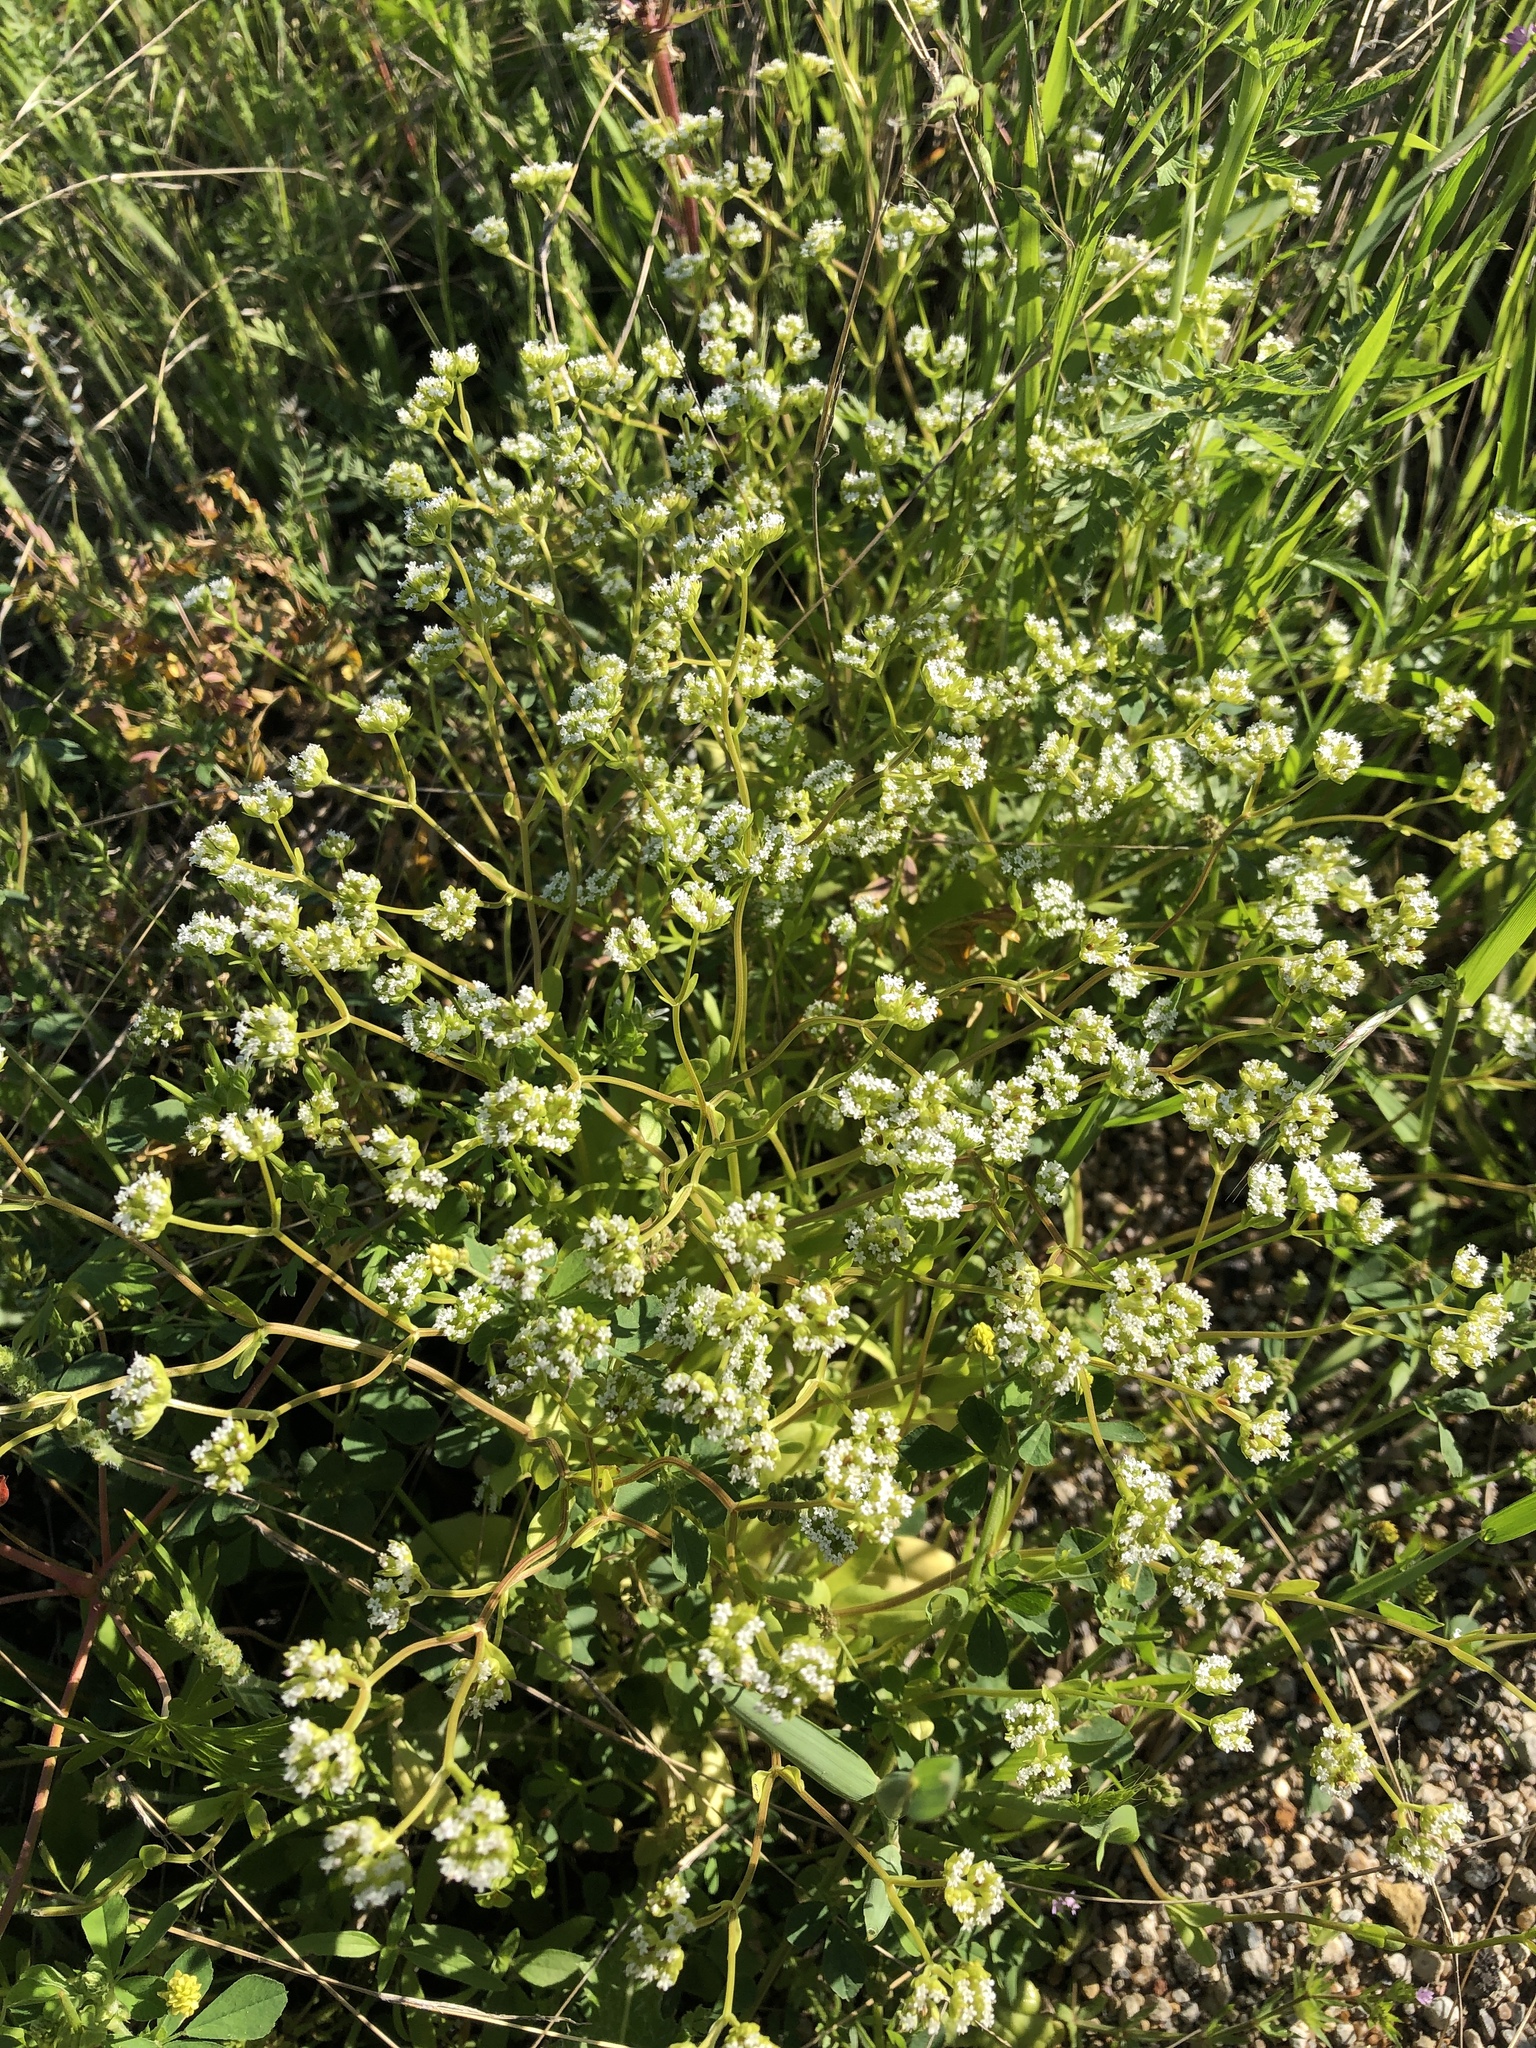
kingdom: Plantae
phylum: Tracheophyta
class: Magnoliopsida
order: Dipsacales
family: Caprifoliaceae
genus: Valerianella
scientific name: Valerianella radiata
